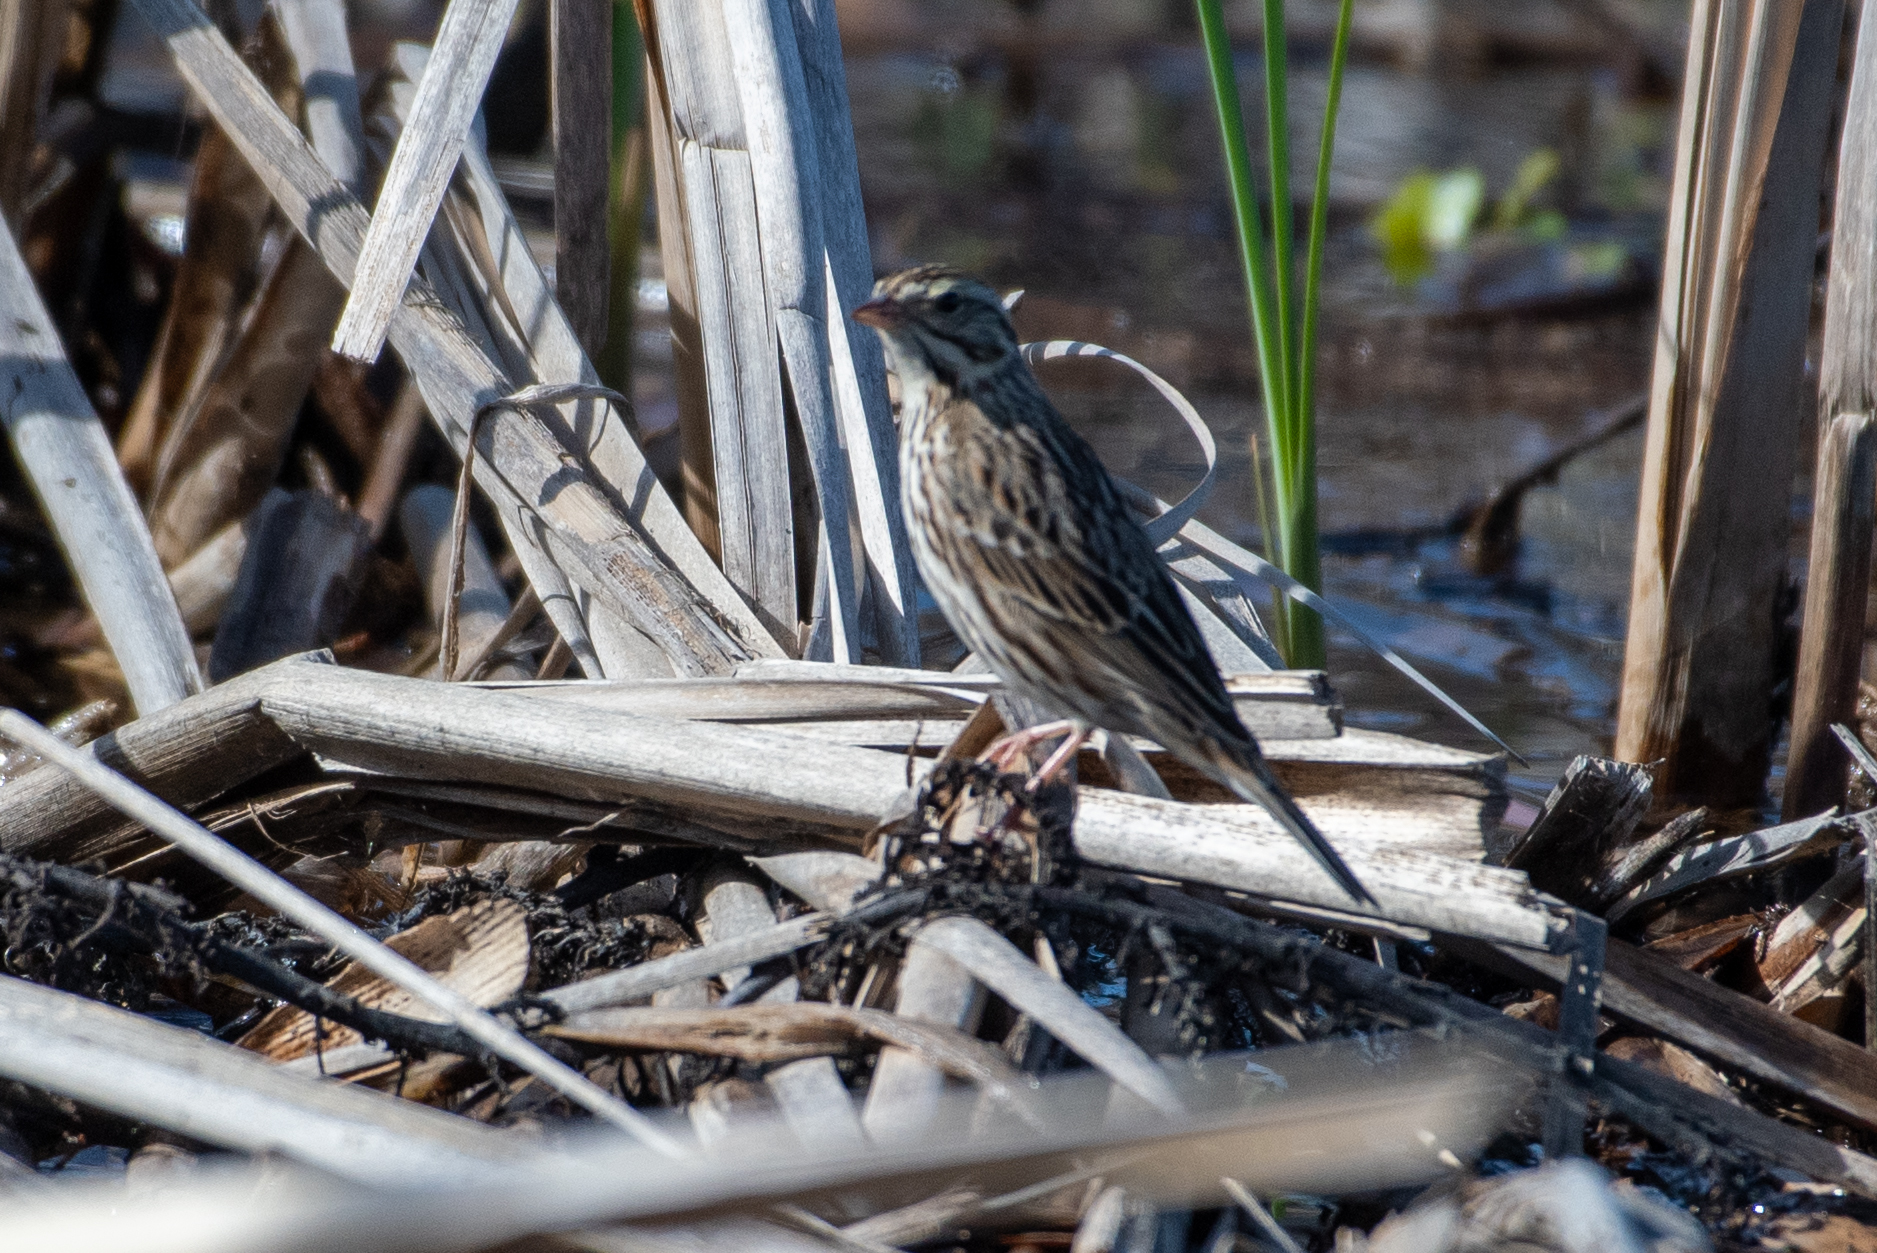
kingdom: Animalia
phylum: Chordata
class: Aves
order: Passeriformes
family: Passerellidae
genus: Passerculus
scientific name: Passerculus sandwichensis
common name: Savannah sparrow
